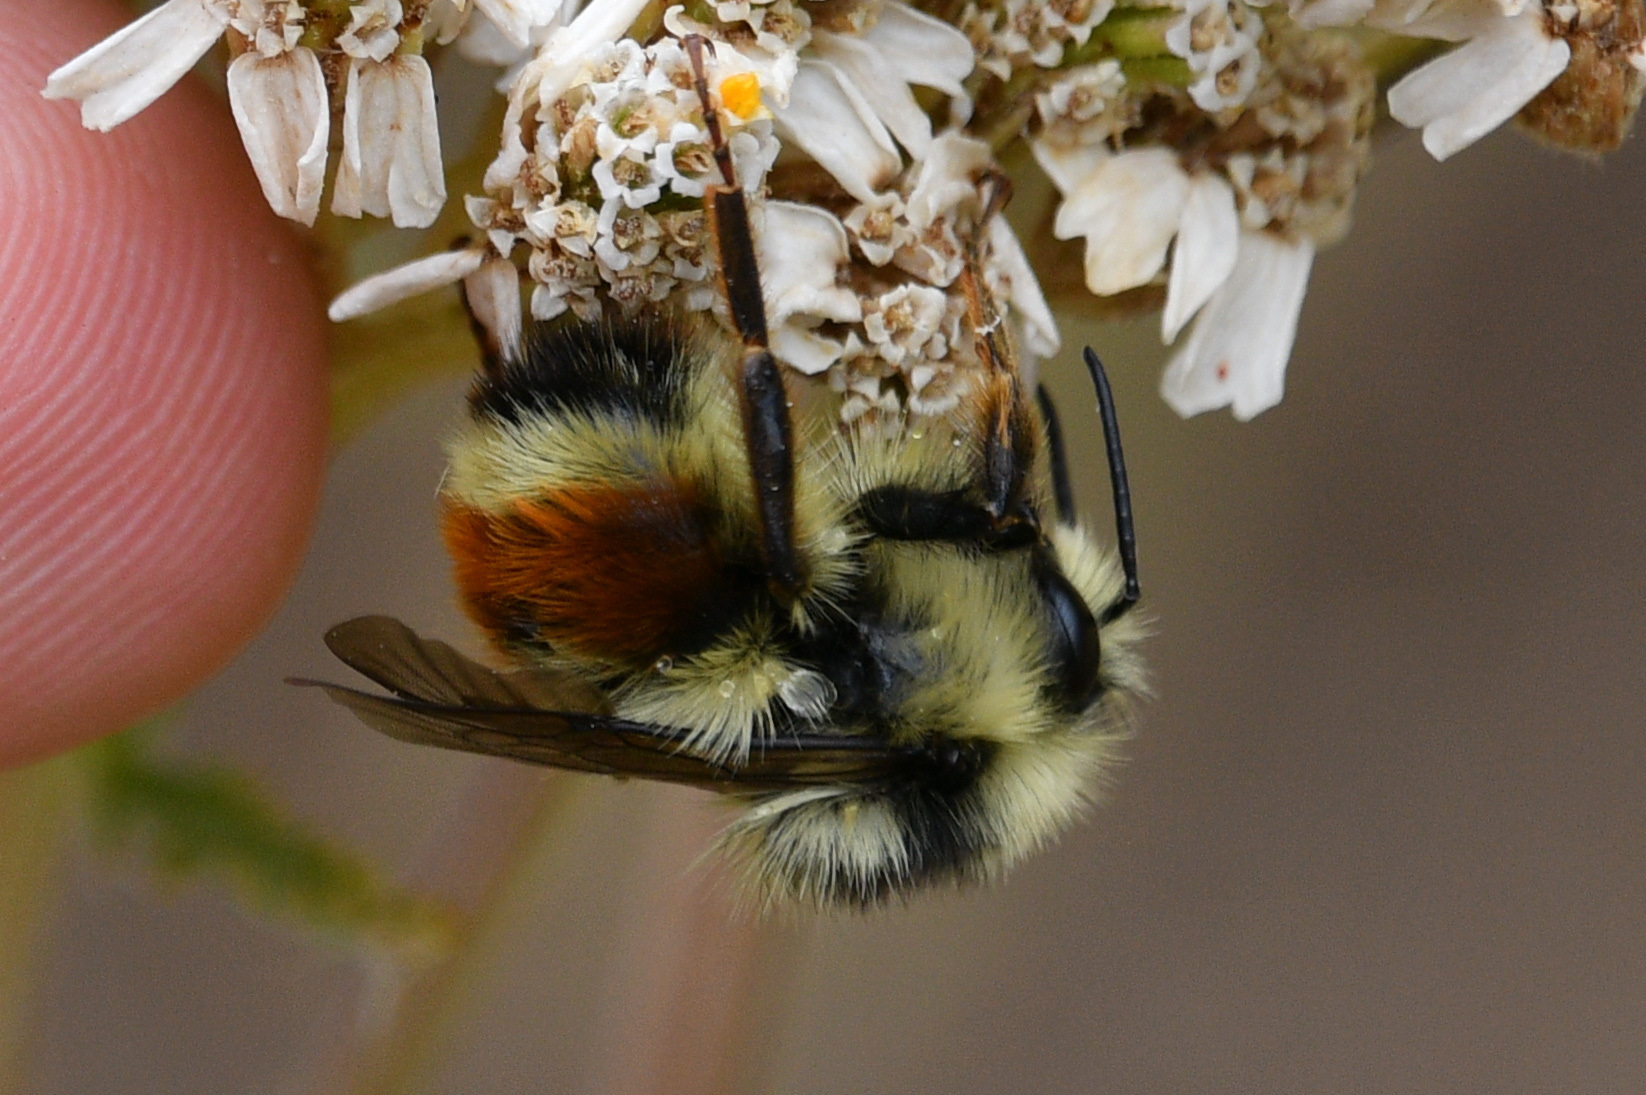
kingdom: Animalia
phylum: Arthropoda
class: Insecta
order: Hymenoptera
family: Apidae
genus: Bombus
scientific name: Bombus vancouverensis
